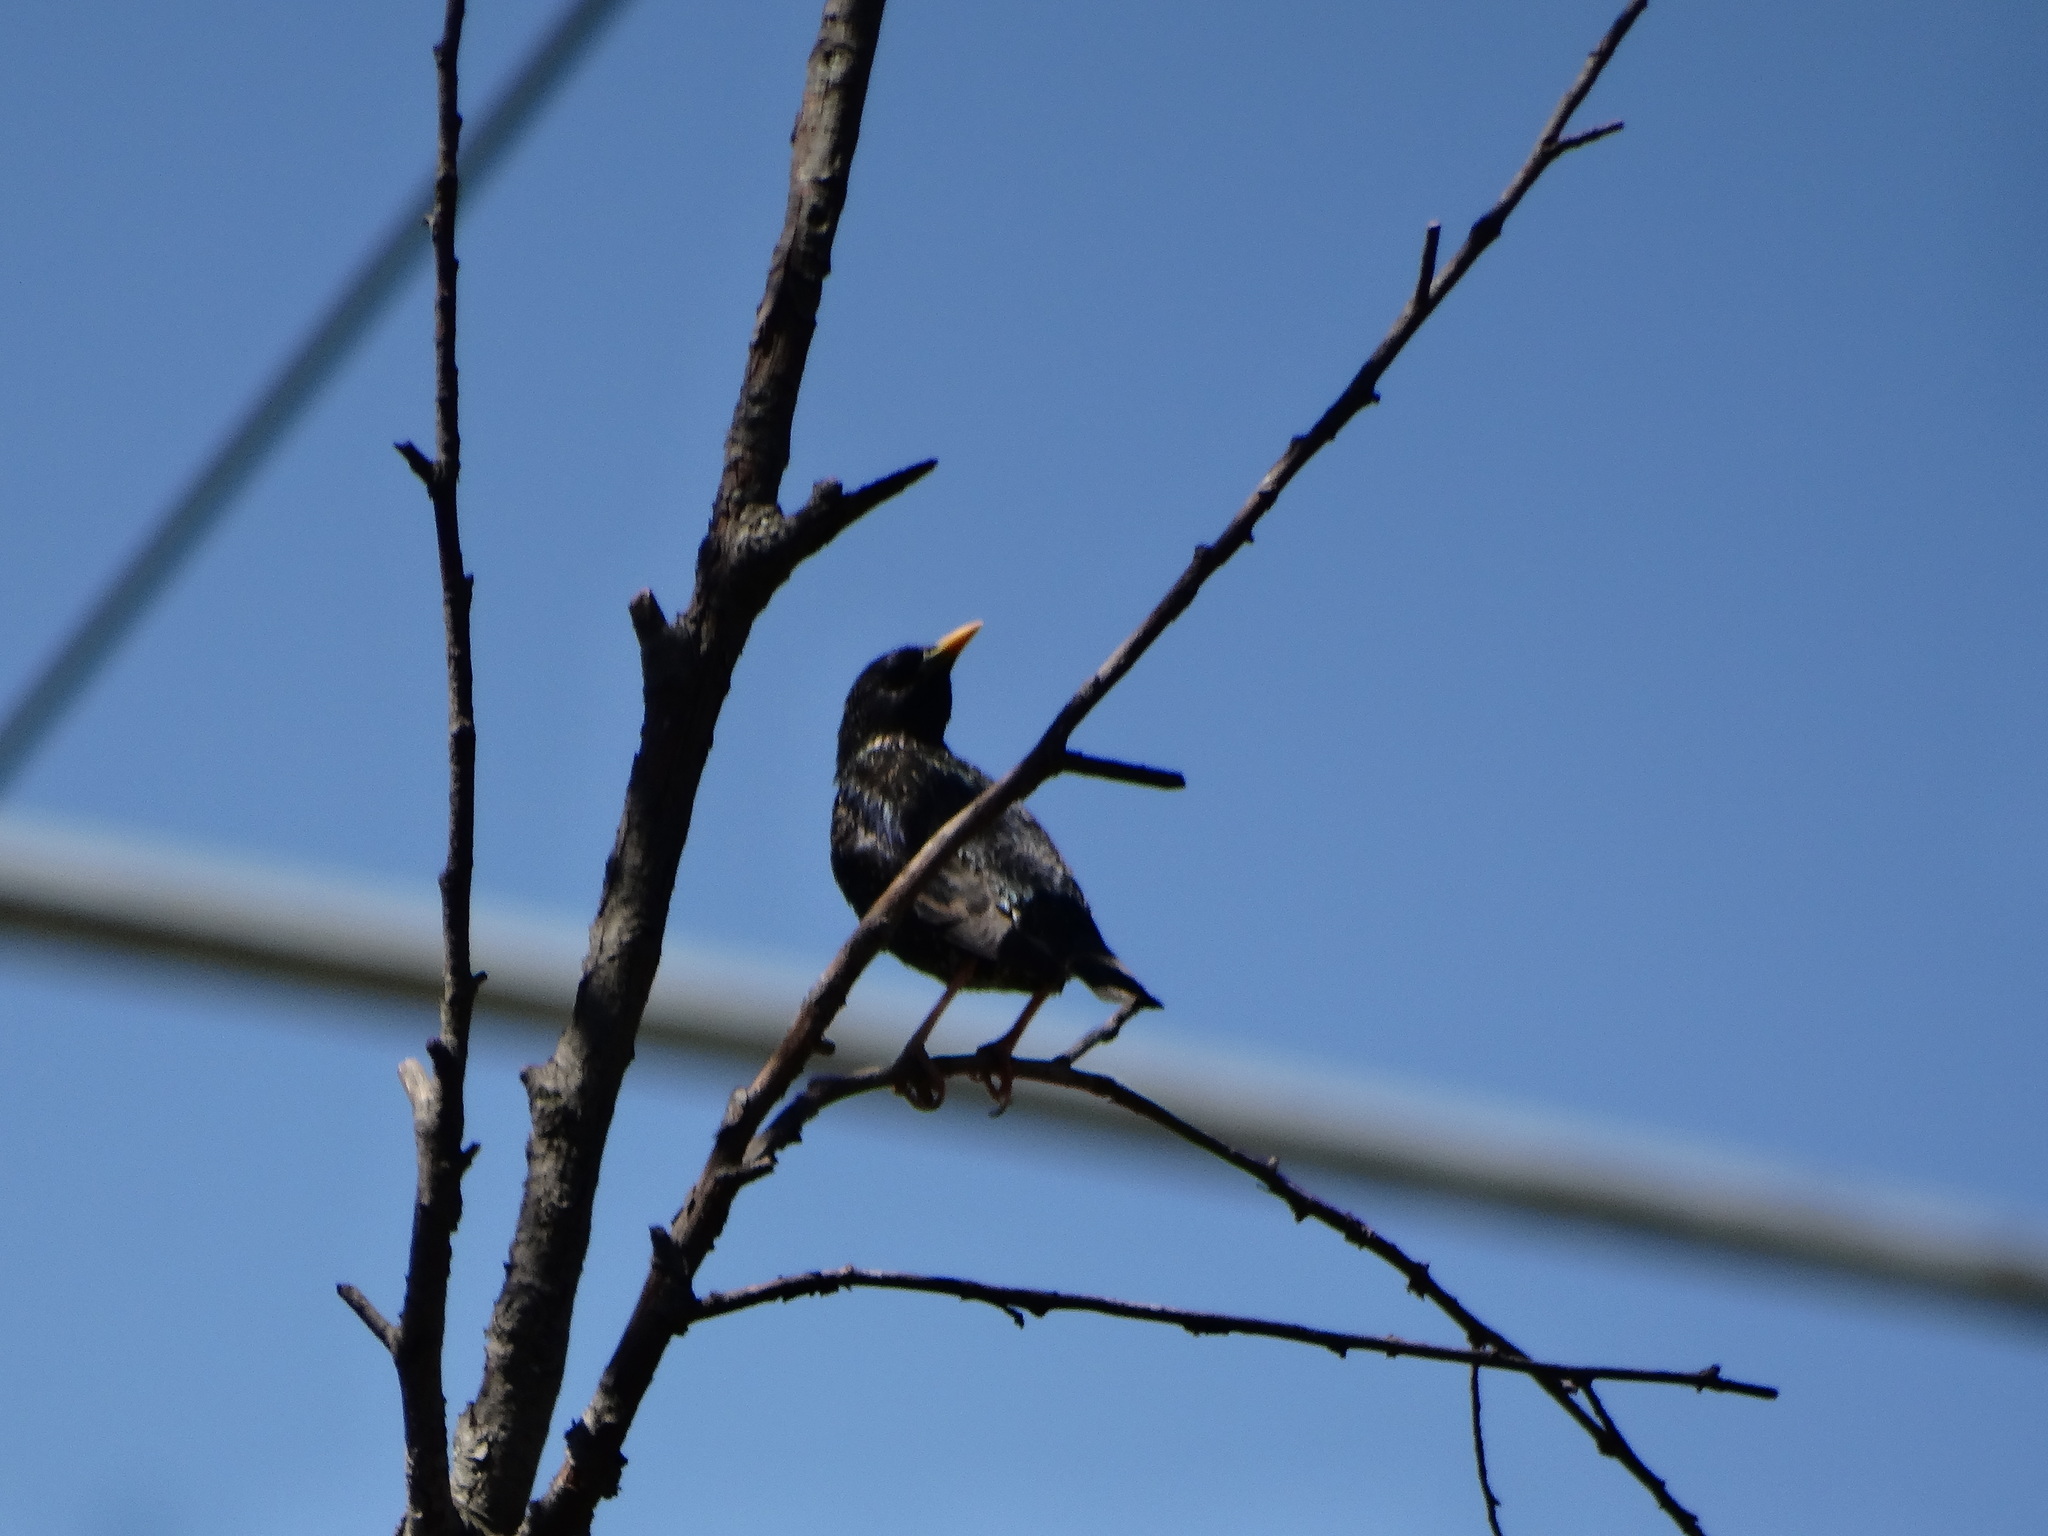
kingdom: Animalia
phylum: Chordata
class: Aves
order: Passeriformes
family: Sturnidae
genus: Sturnus
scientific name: Sturnus vulgaris
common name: Common starling
